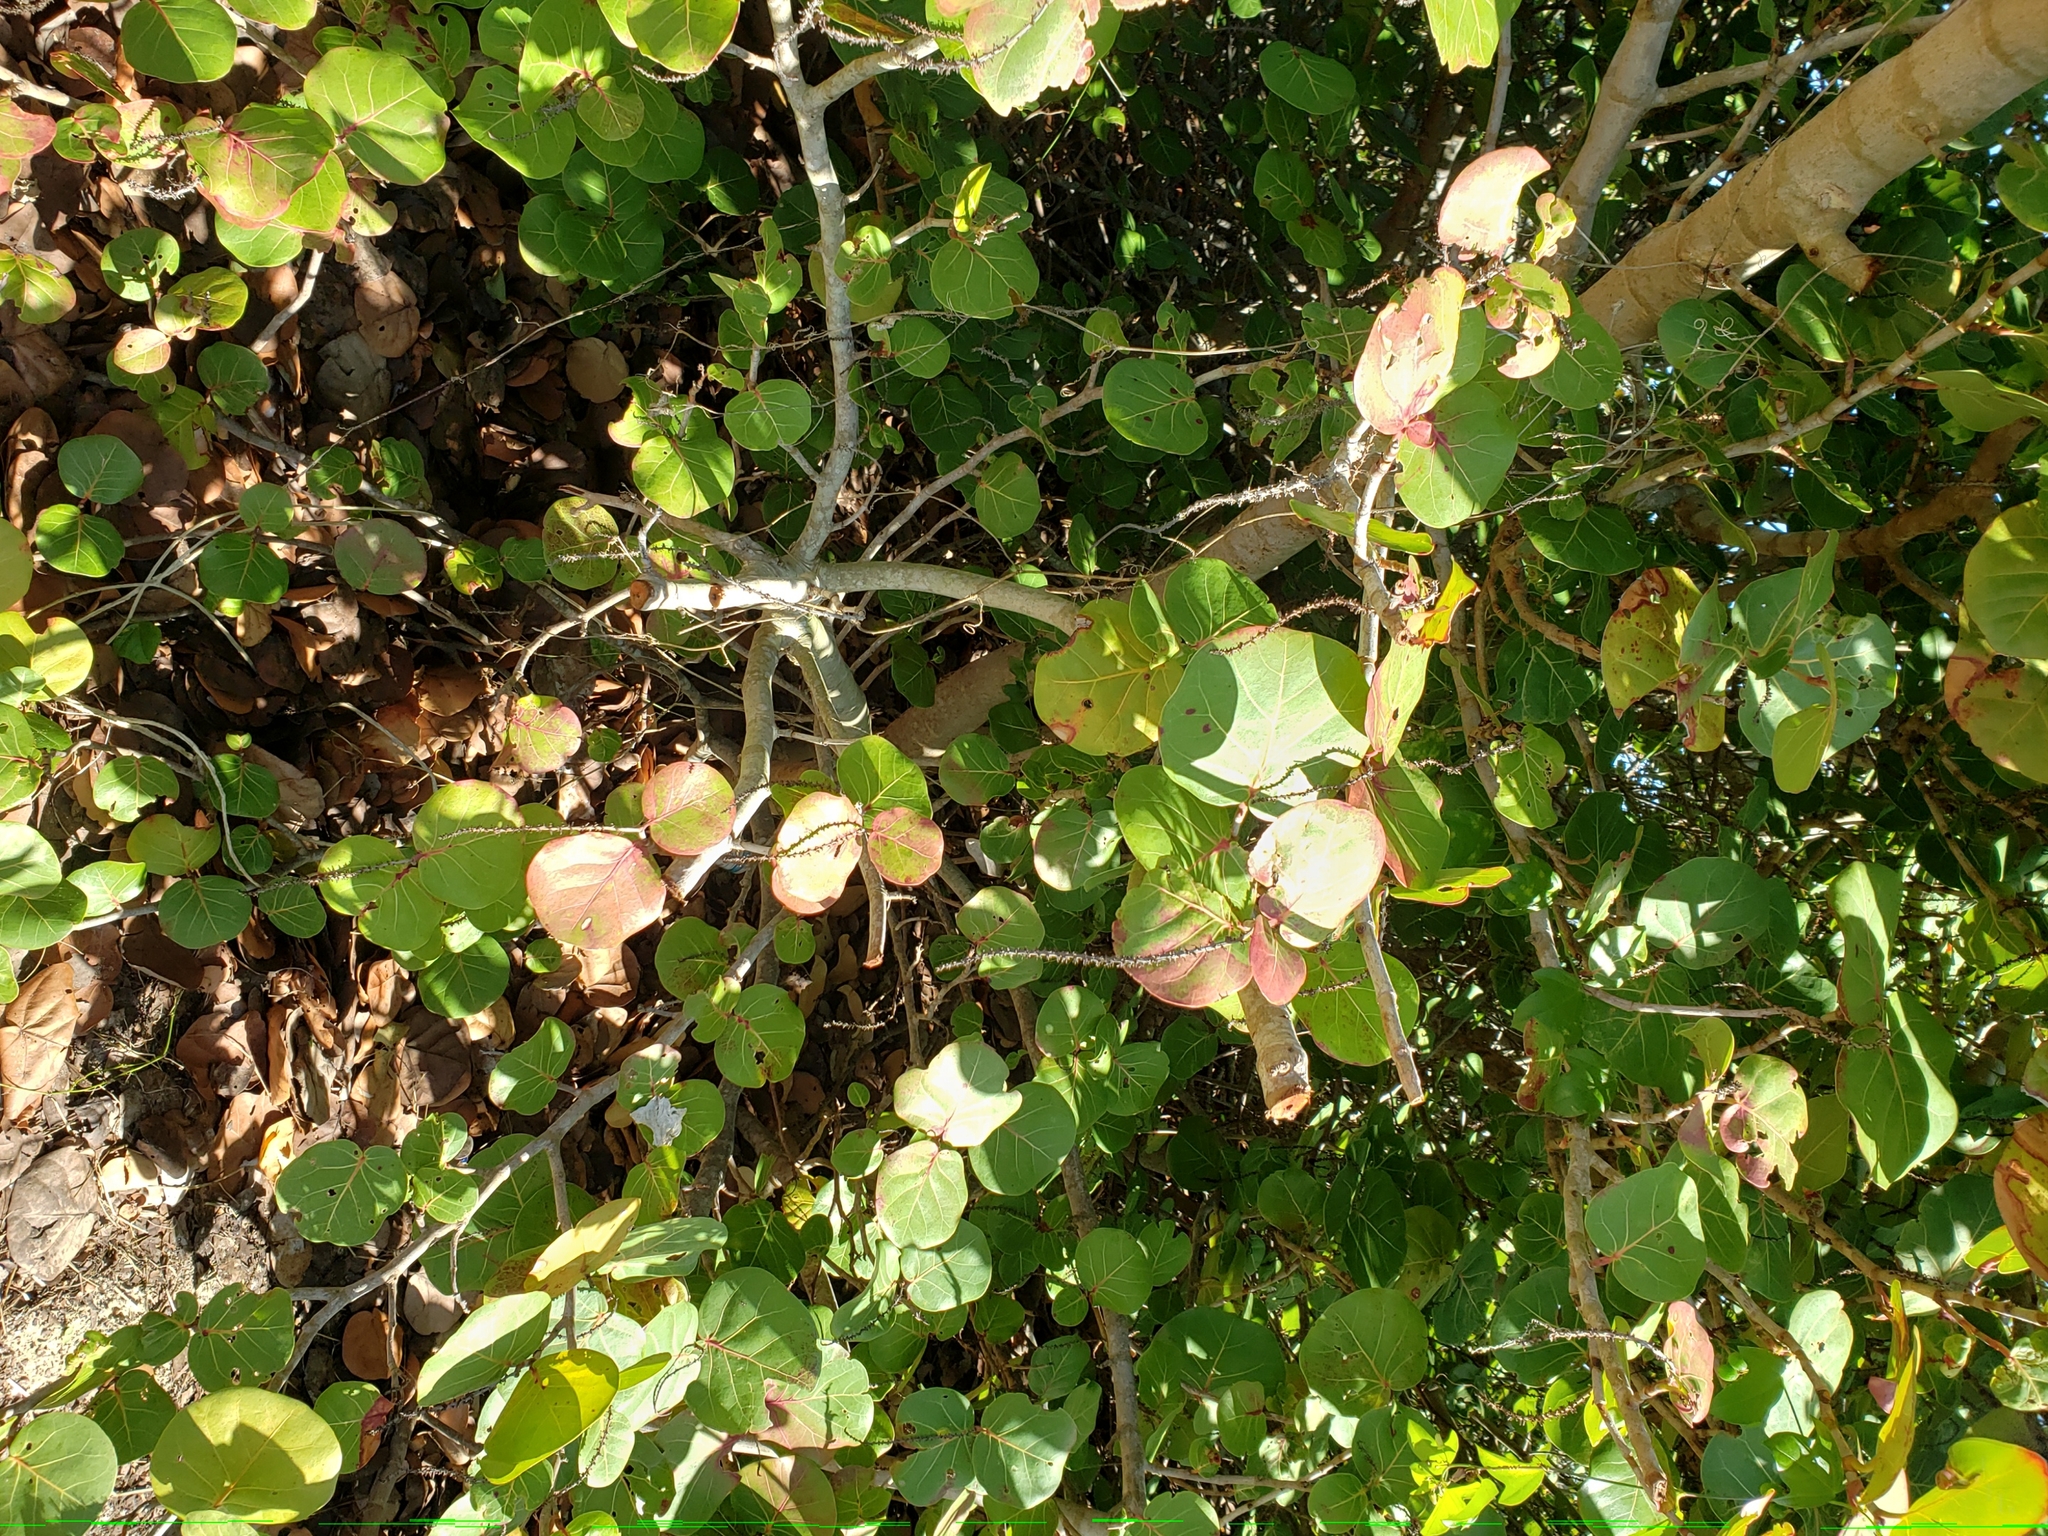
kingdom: Plantae
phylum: Tracheophyta
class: Magnoliopsida
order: Caryophyllales
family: Polygonaceae
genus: Coccoloba
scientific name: Coccoloba uvifera
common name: Seagrape
